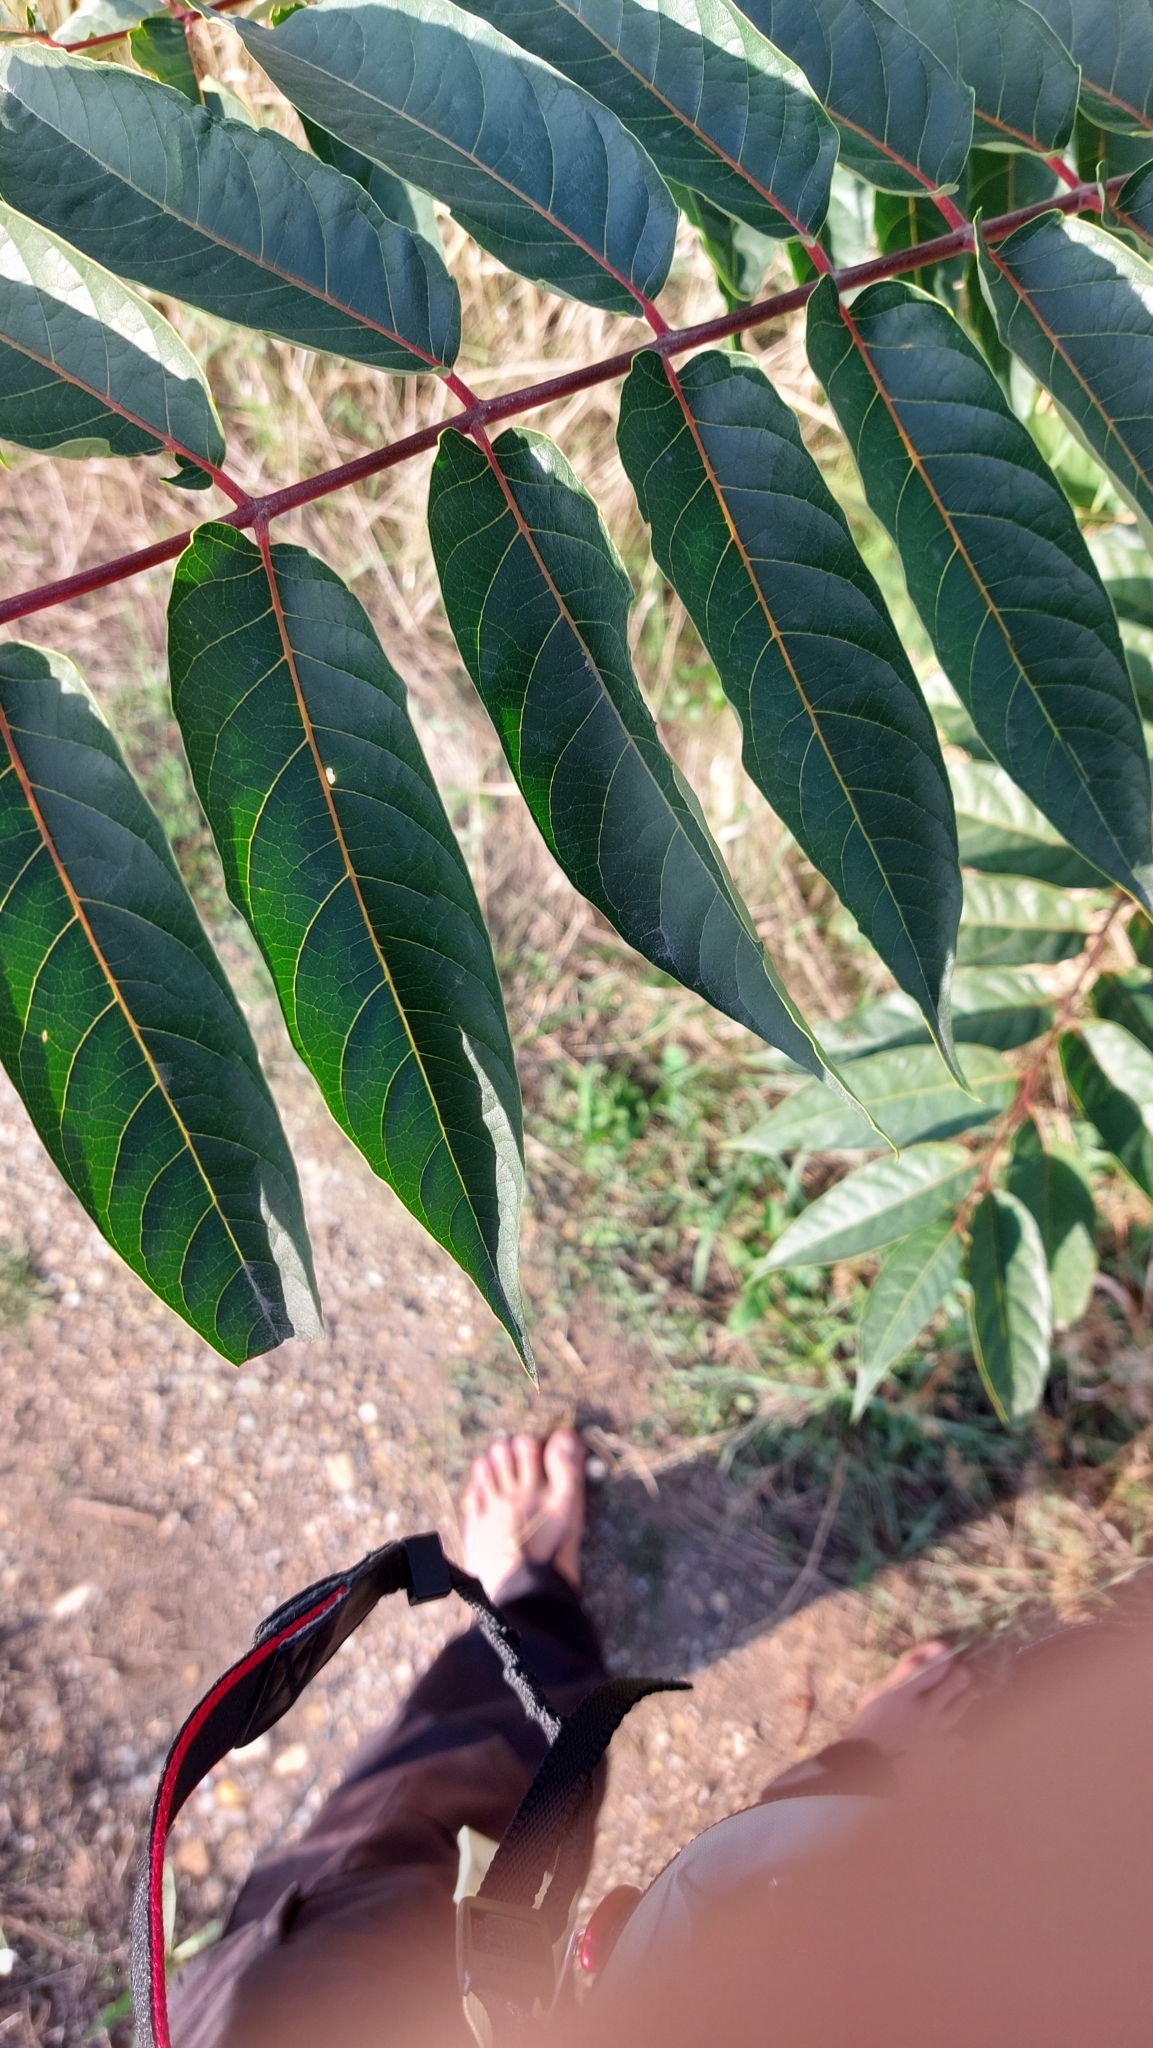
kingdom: Plantae
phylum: Tracheophyta
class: Magnoliopsida
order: Sapindales
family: Simaroubaceae
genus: Ailanthus
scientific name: Ailanthus altissima
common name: Tree-of-heaven
